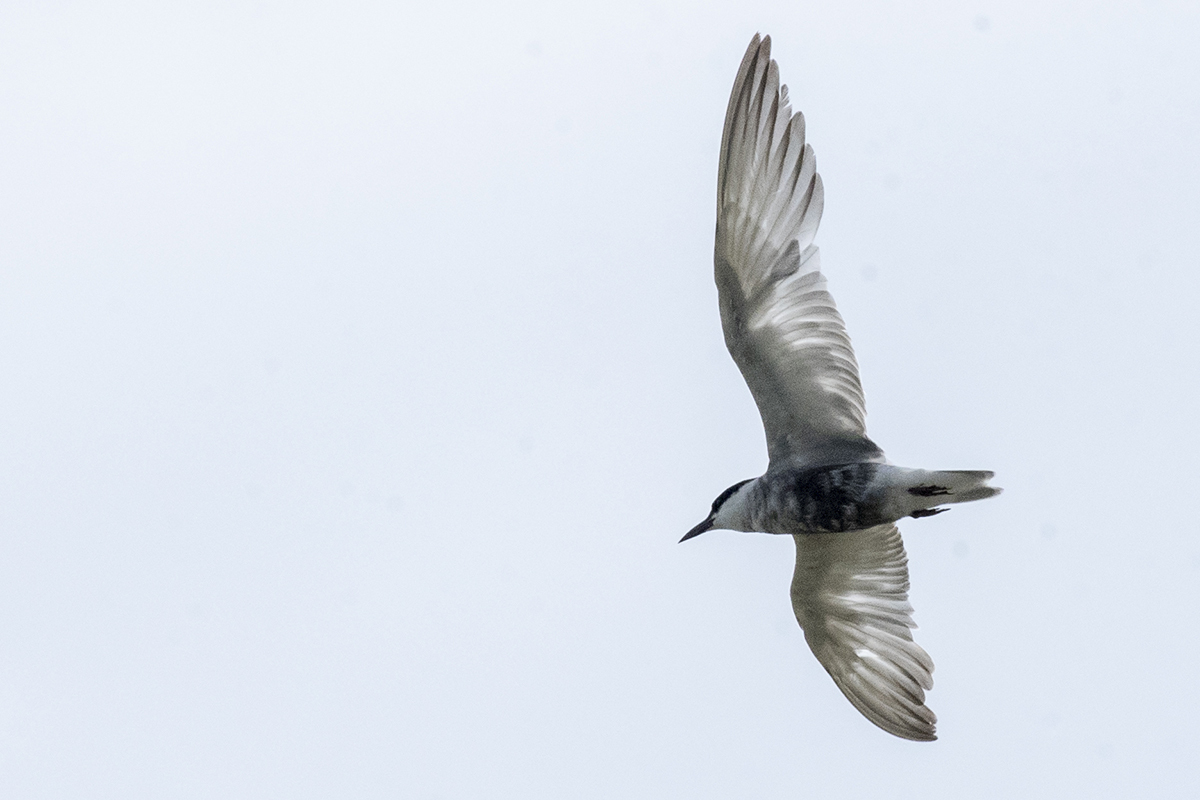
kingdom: Animalia
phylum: Chordata
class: Aves
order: Charadriiformes
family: Laridae
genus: Chlidonias
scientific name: Chlidonias hybrida
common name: Whiskered tern
